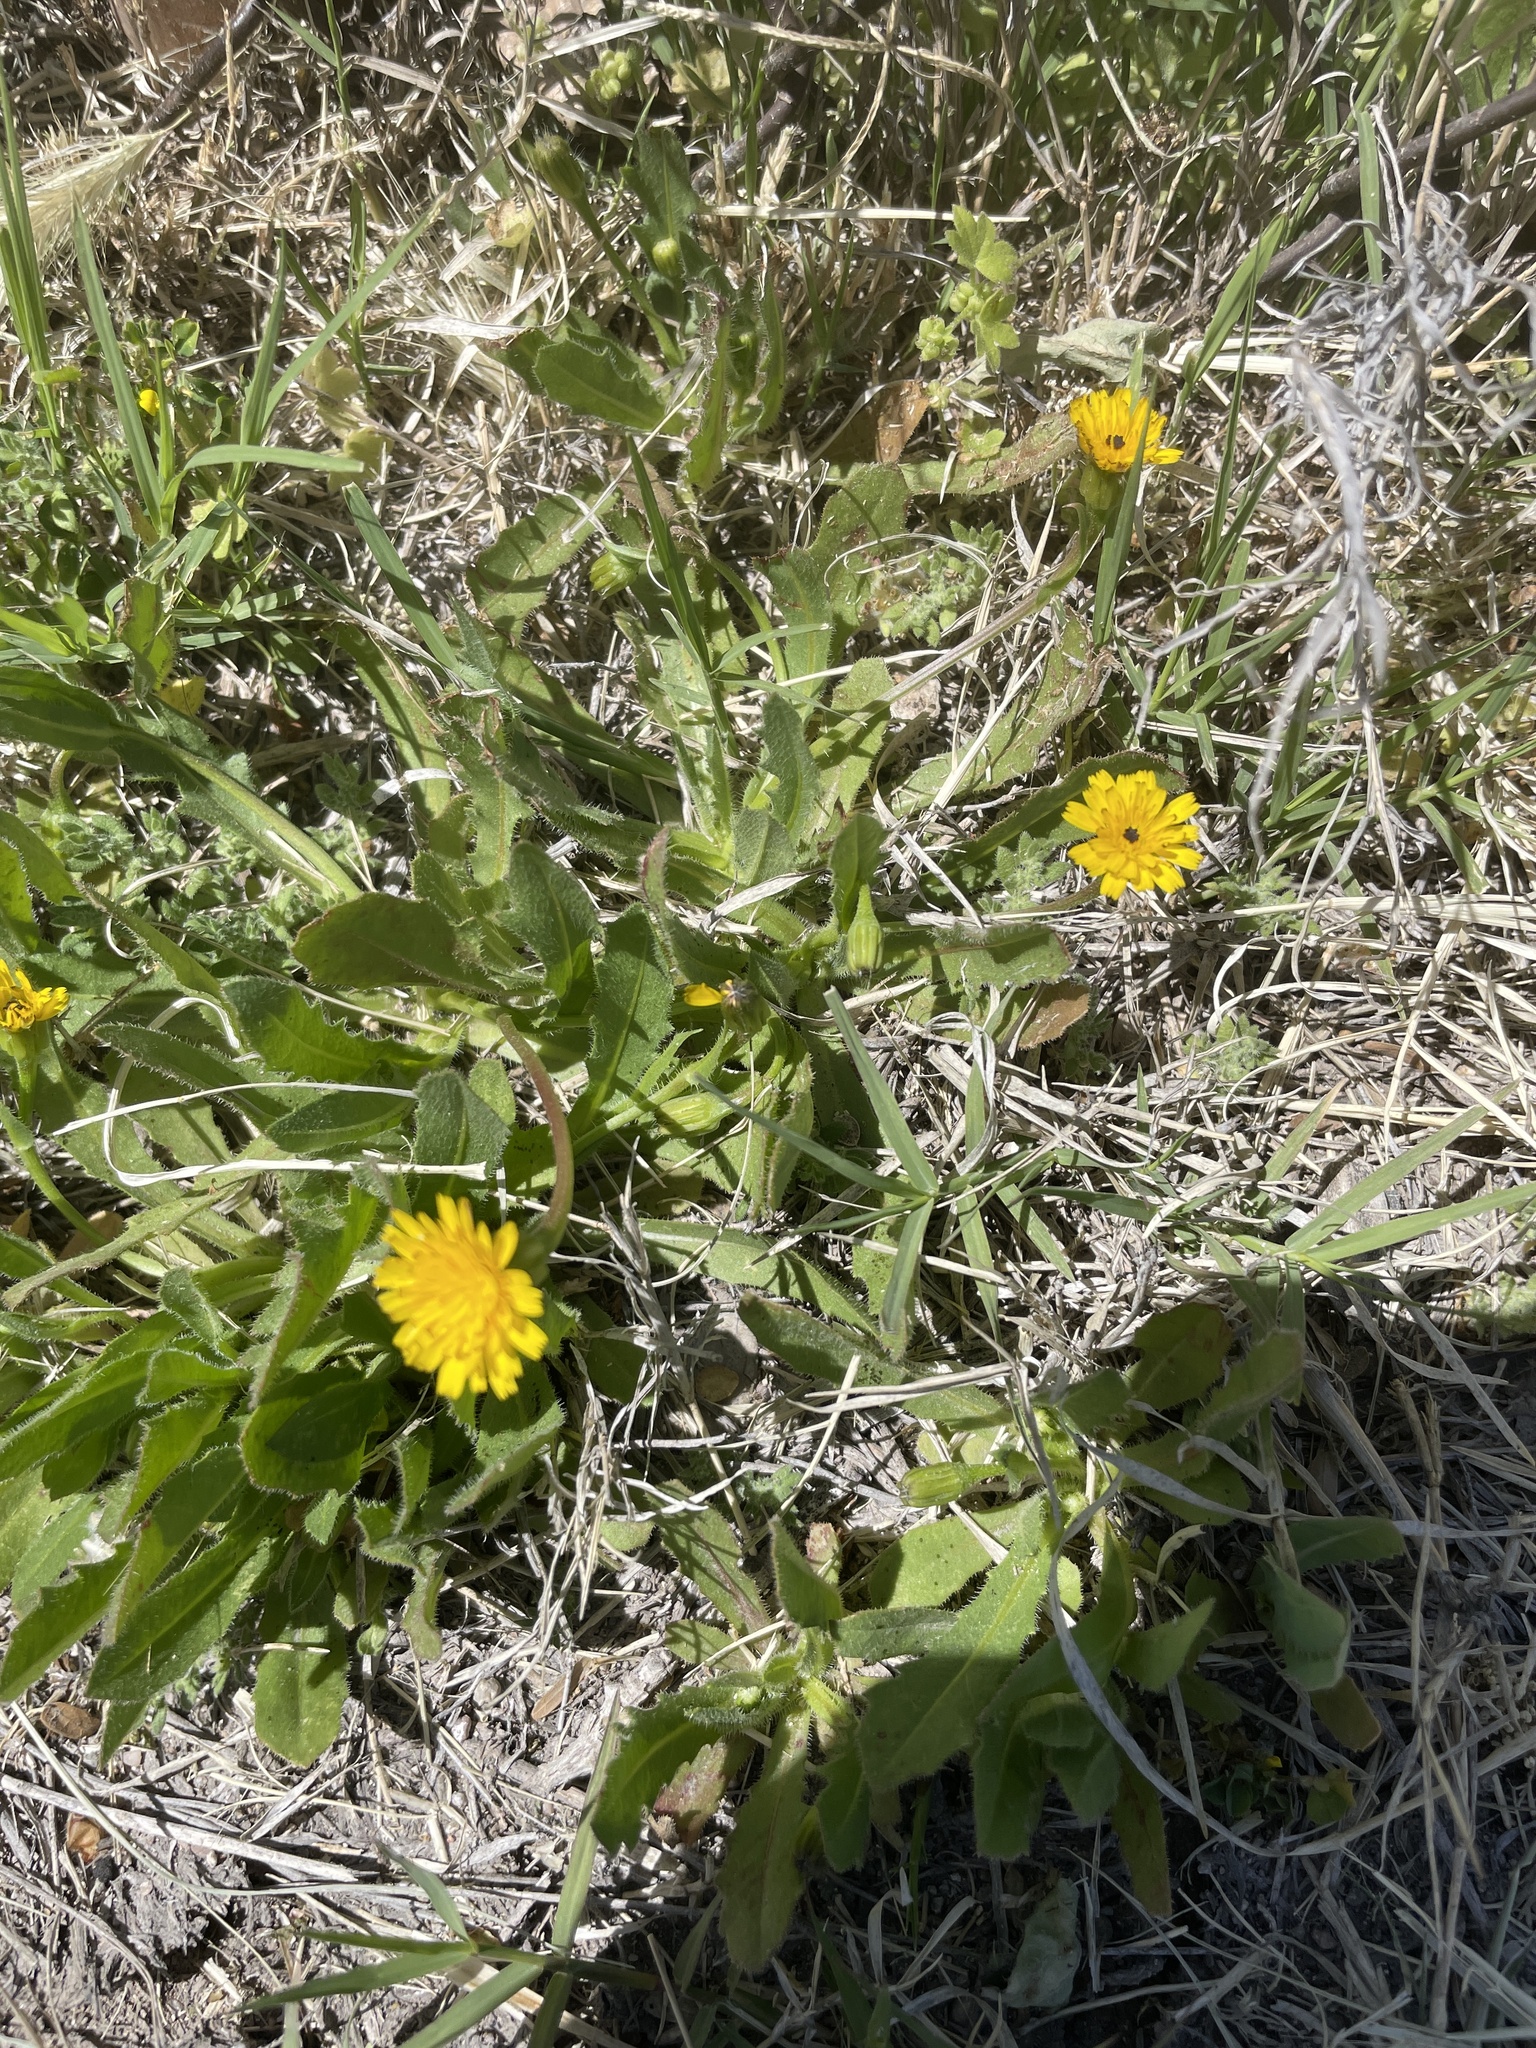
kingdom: Plantae
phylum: Tracheophyta
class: Magnoliopsida
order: Asterales
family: Asteraceae
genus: Hedypnois
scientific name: Hedypnois rhagadioloides
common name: Cretan weed
